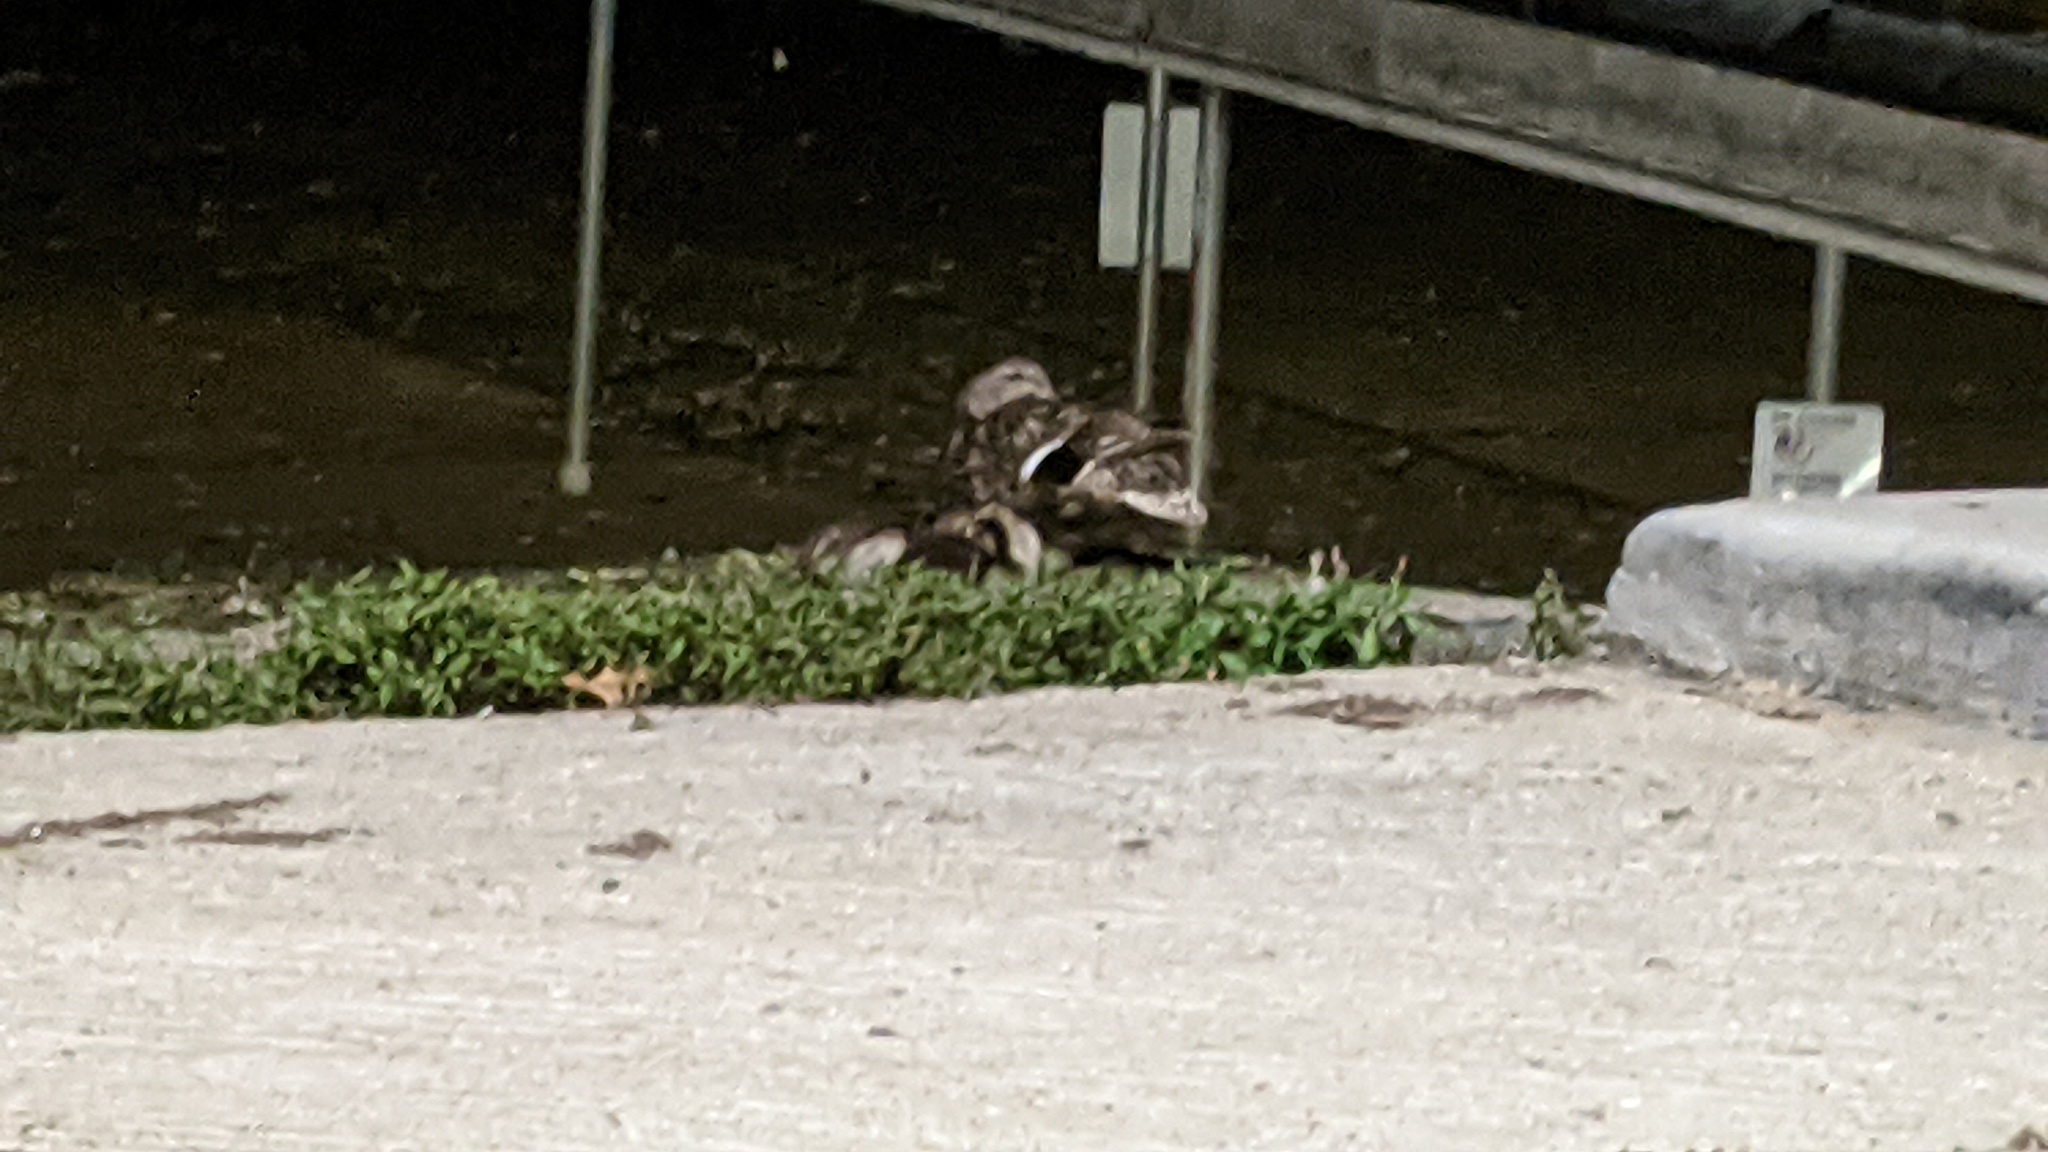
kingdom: Animalia
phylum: Chordata
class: Aves
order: Anseriformes
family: Anatidae
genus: Anas
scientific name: Anas platyrhynchos
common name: Mallard
